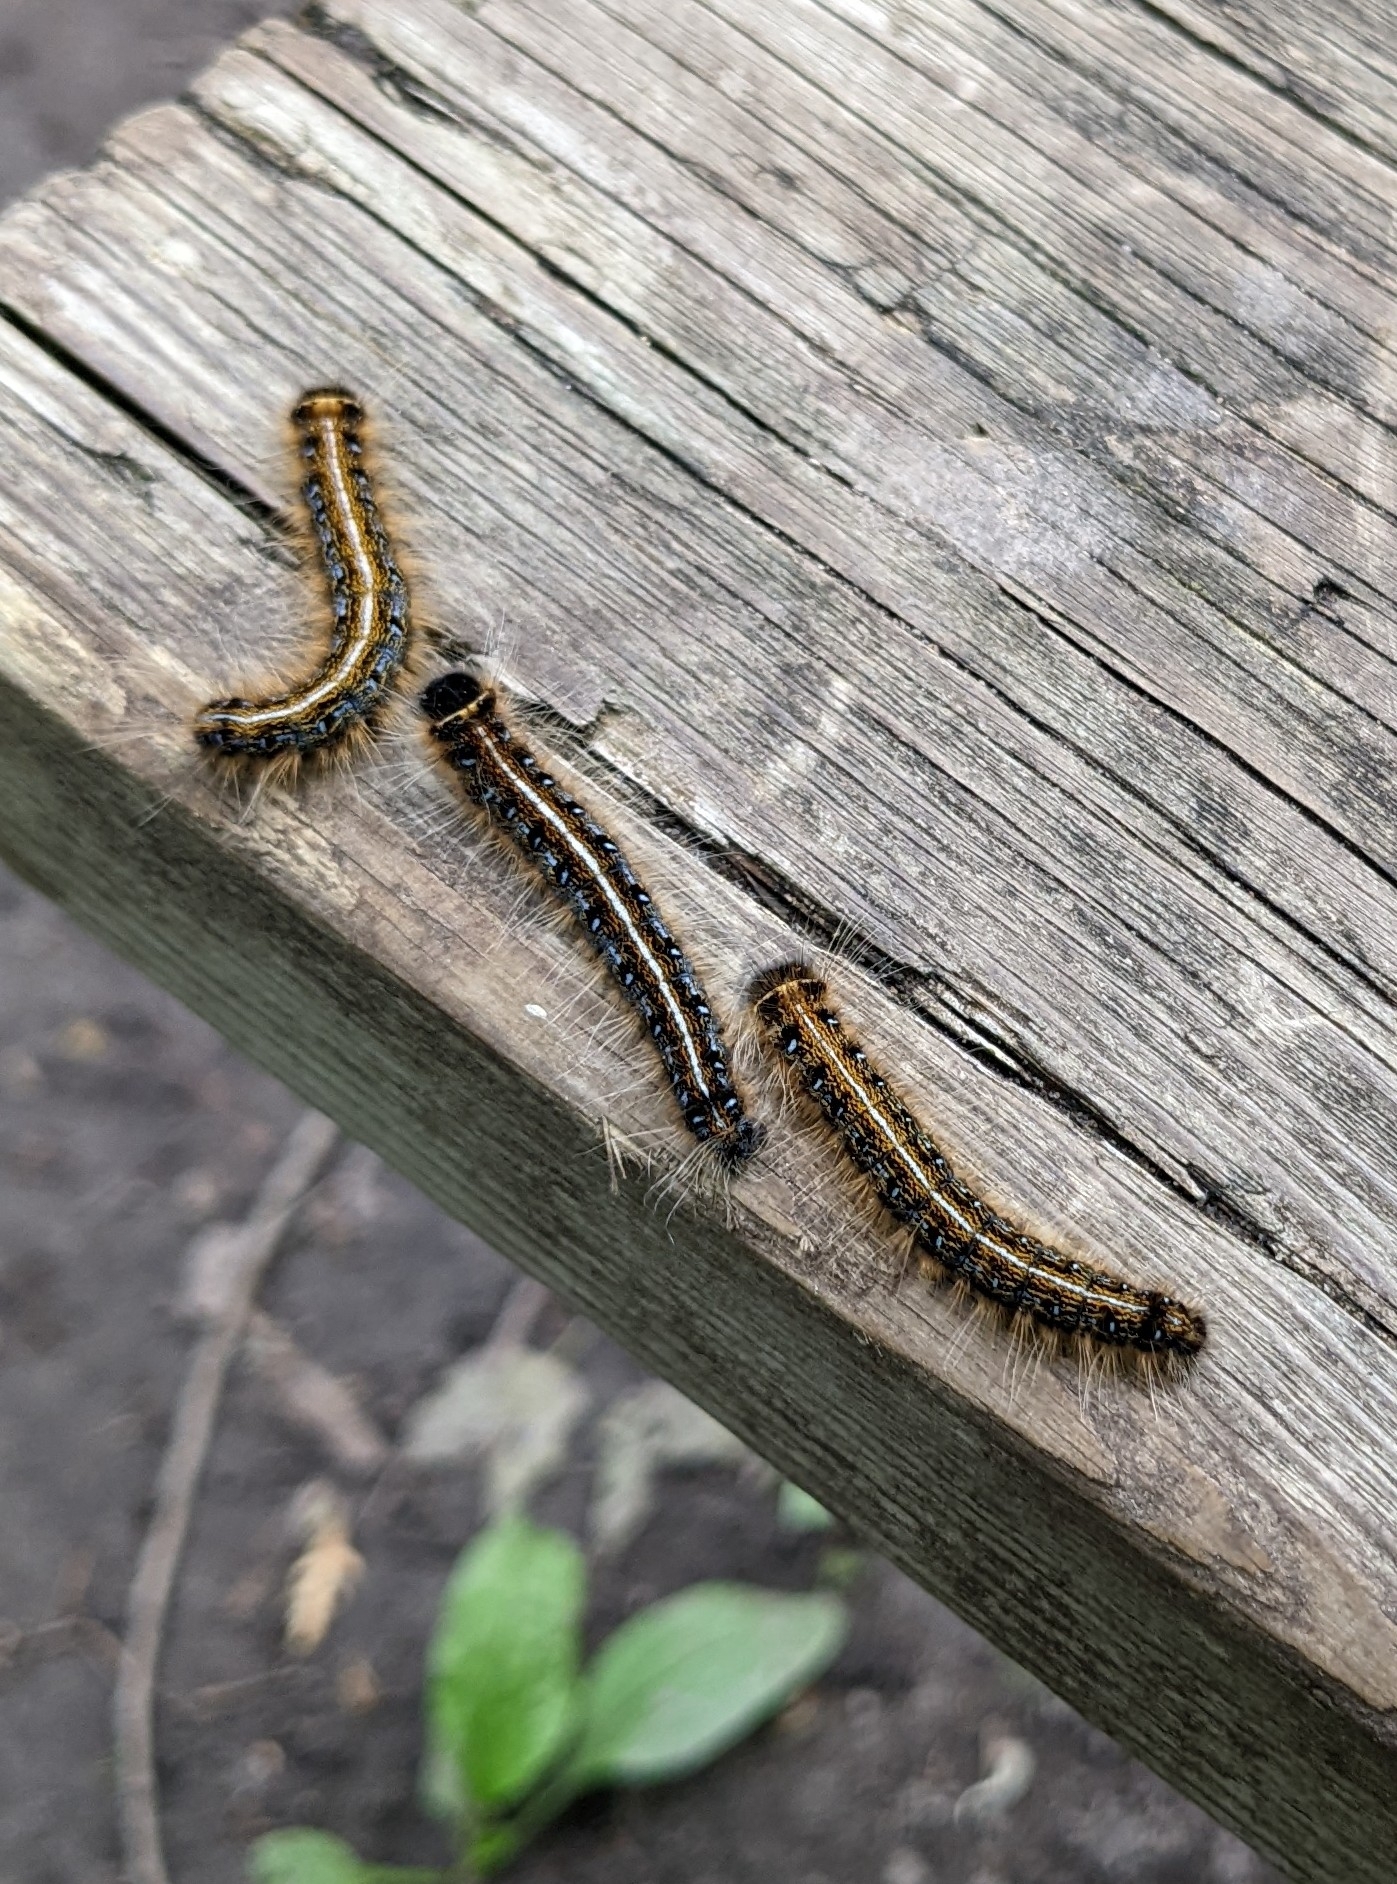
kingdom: Animalia
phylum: Arthropoda
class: Insecta
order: Lepidoptera
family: Lasiocampidae
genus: Malacosoma
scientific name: Malacosoma americana
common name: Eastern tent caterpillar moth
